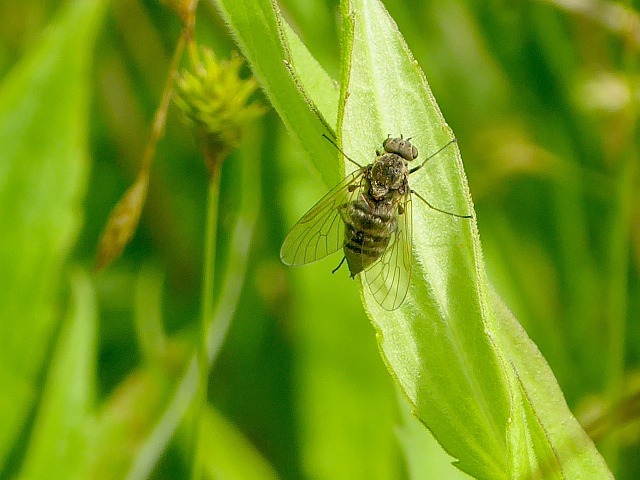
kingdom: Animalia
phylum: Arthropoda
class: Insecta
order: Diptera
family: Rhagionidae
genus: Chrysopilus
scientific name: Chrysopilus proximus
